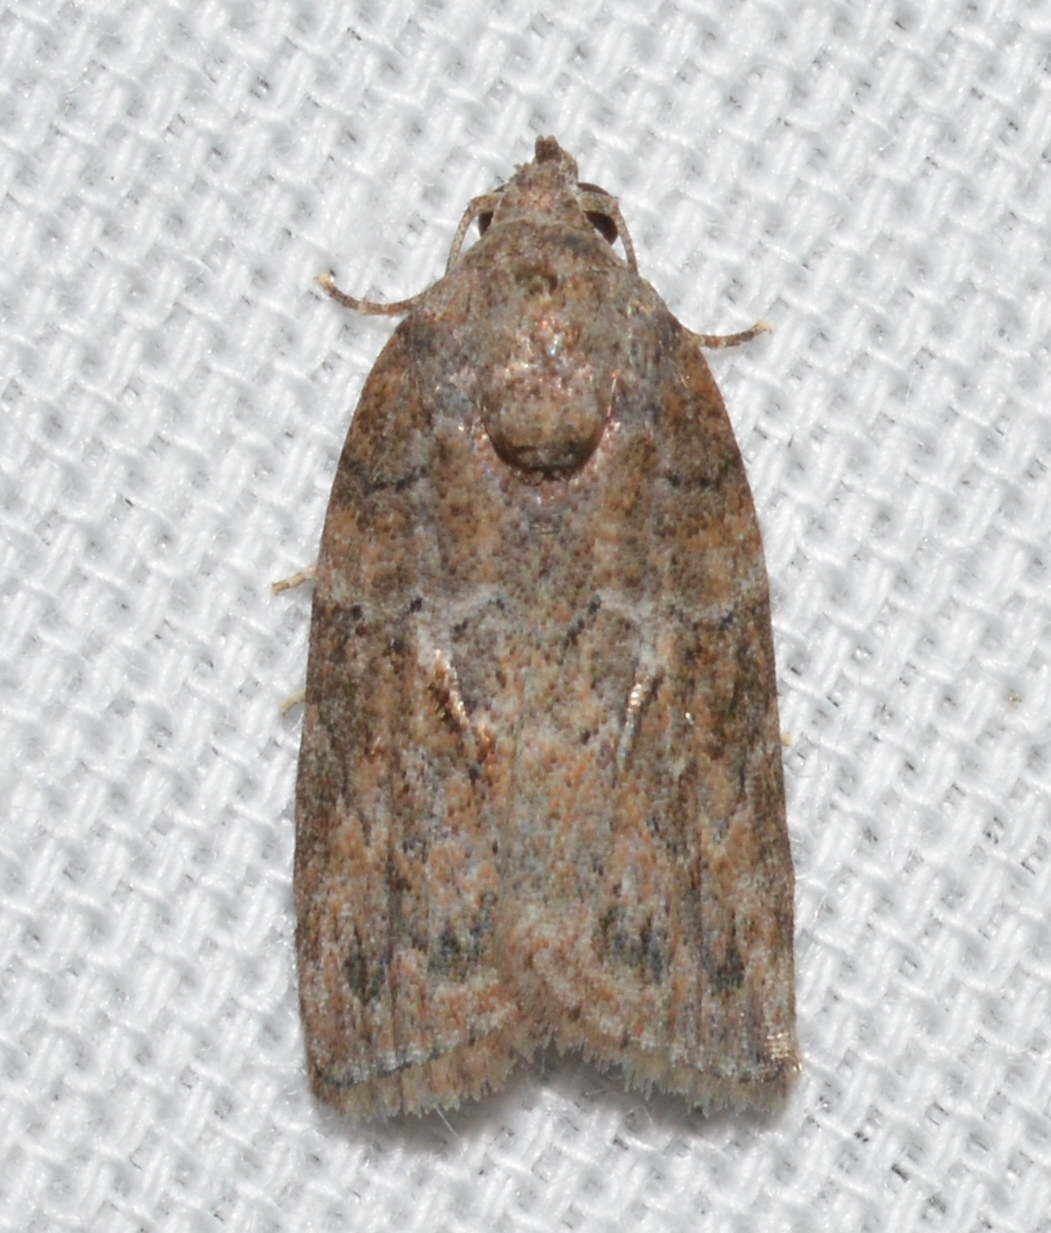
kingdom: Animalia
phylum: Arthropoda
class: Insecta
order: Lepidoptera
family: Nolidae
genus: Garella
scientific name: Garella nilotica
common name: Black-olive caterpillar moth
